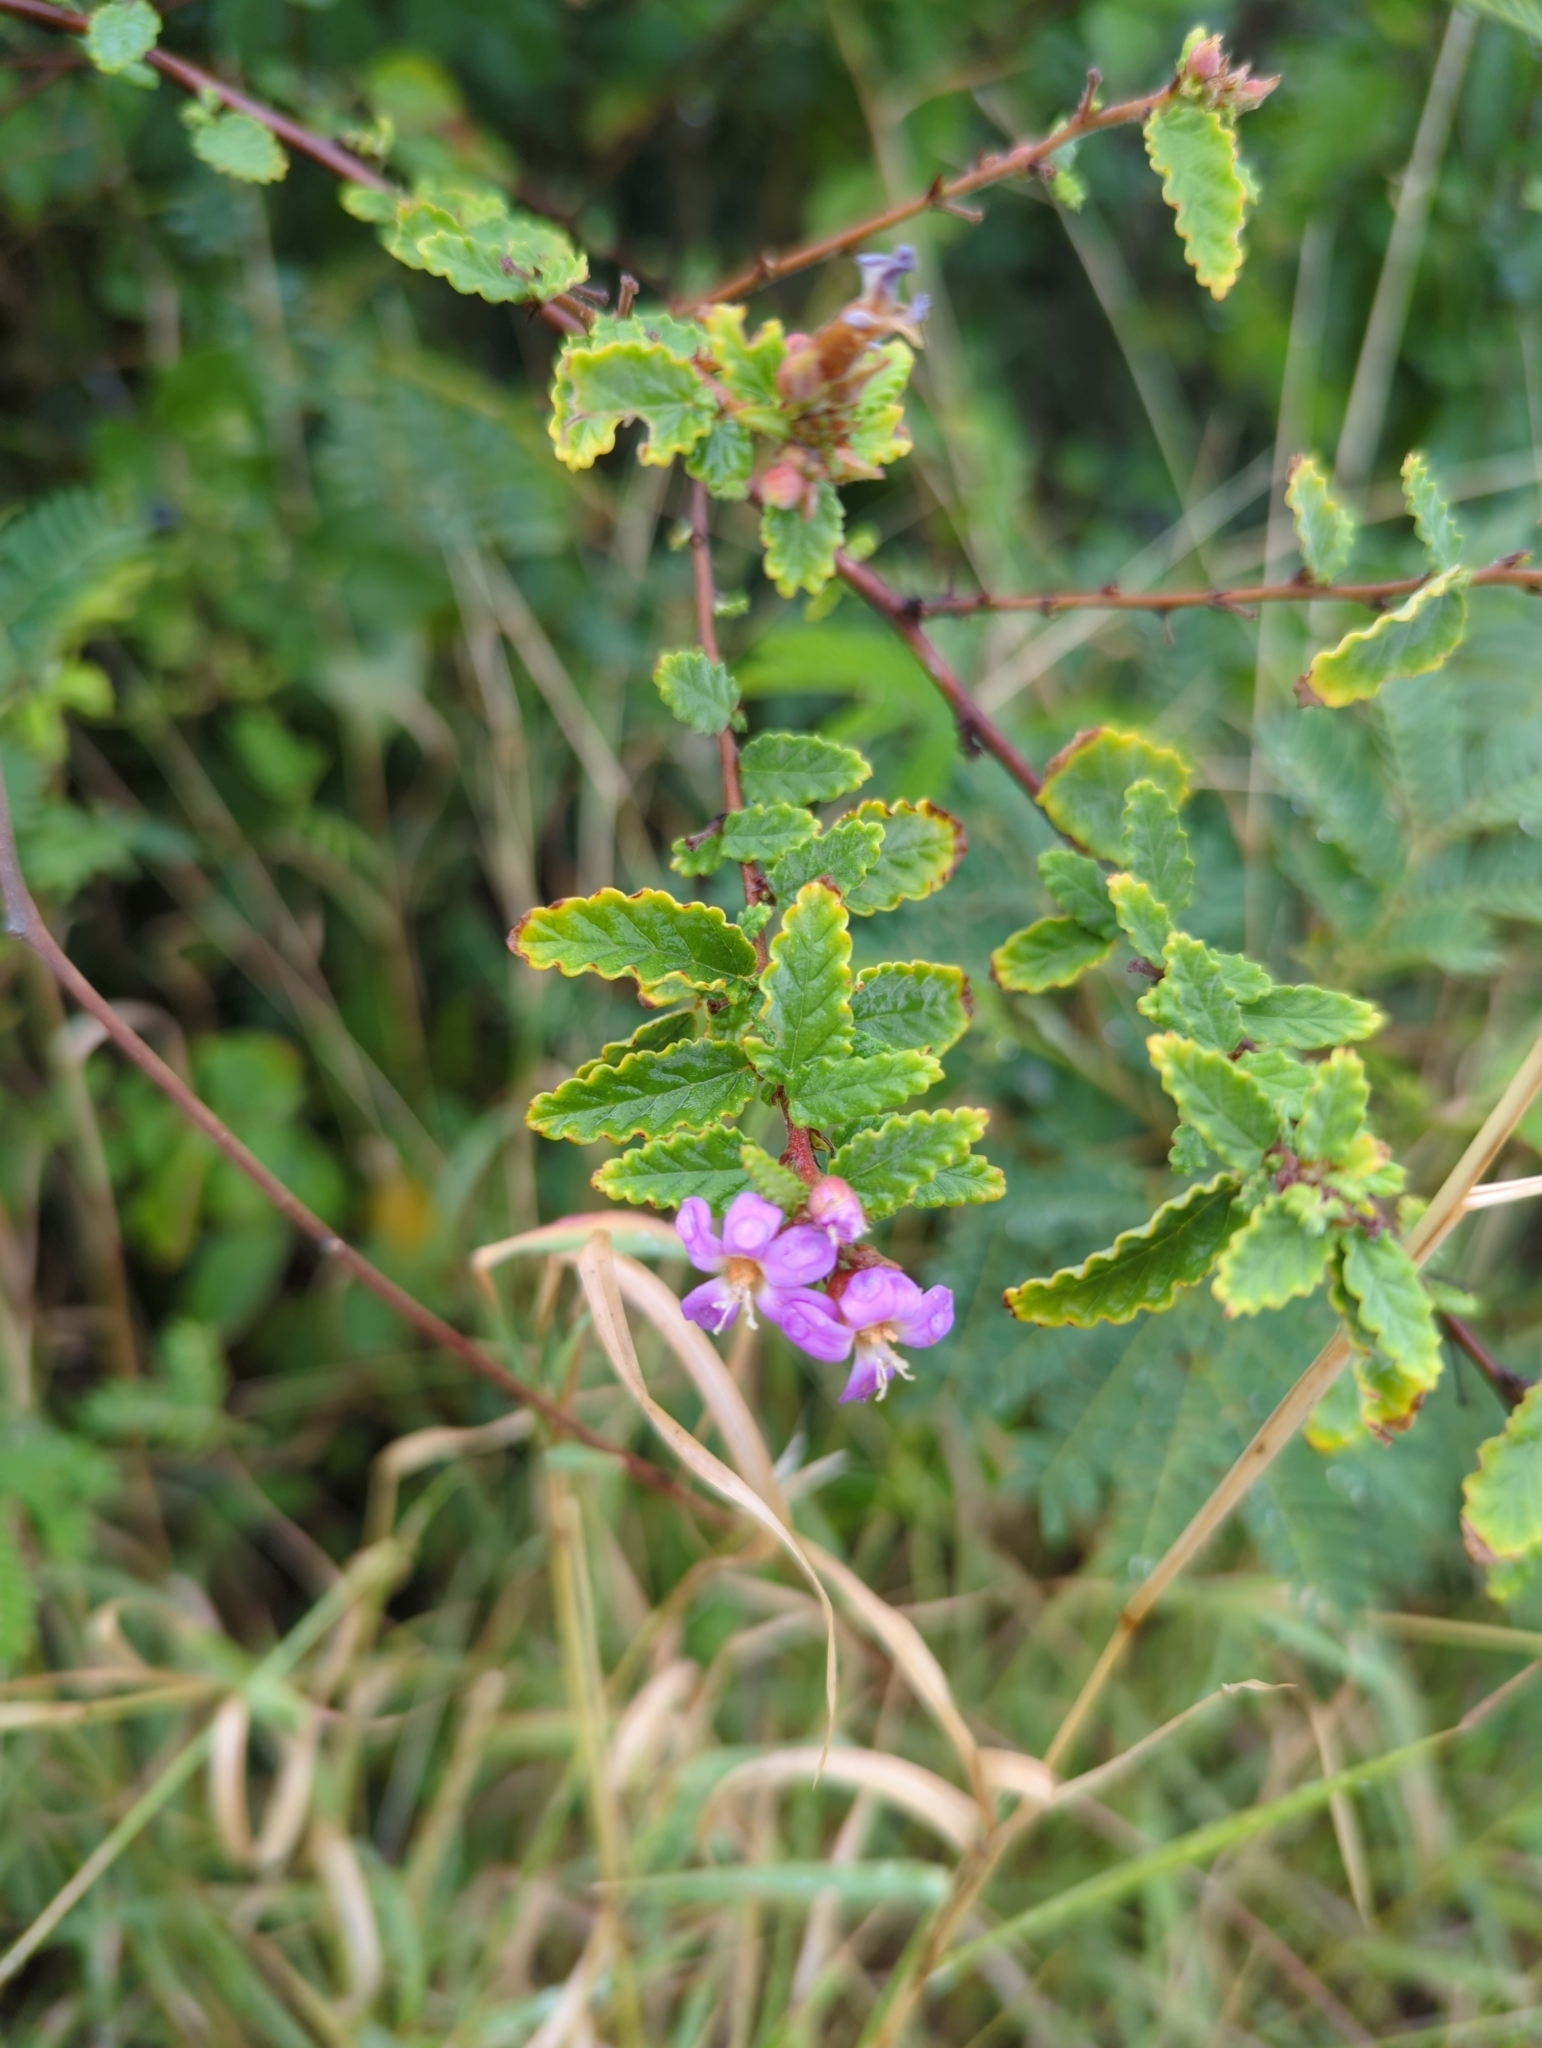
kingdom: Plantae
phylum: Tracheophyta
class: Magnoliopsida
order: Malvales
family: Malvaceae
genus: Melochia
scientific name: Melochia tomentosa
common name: Black torch
